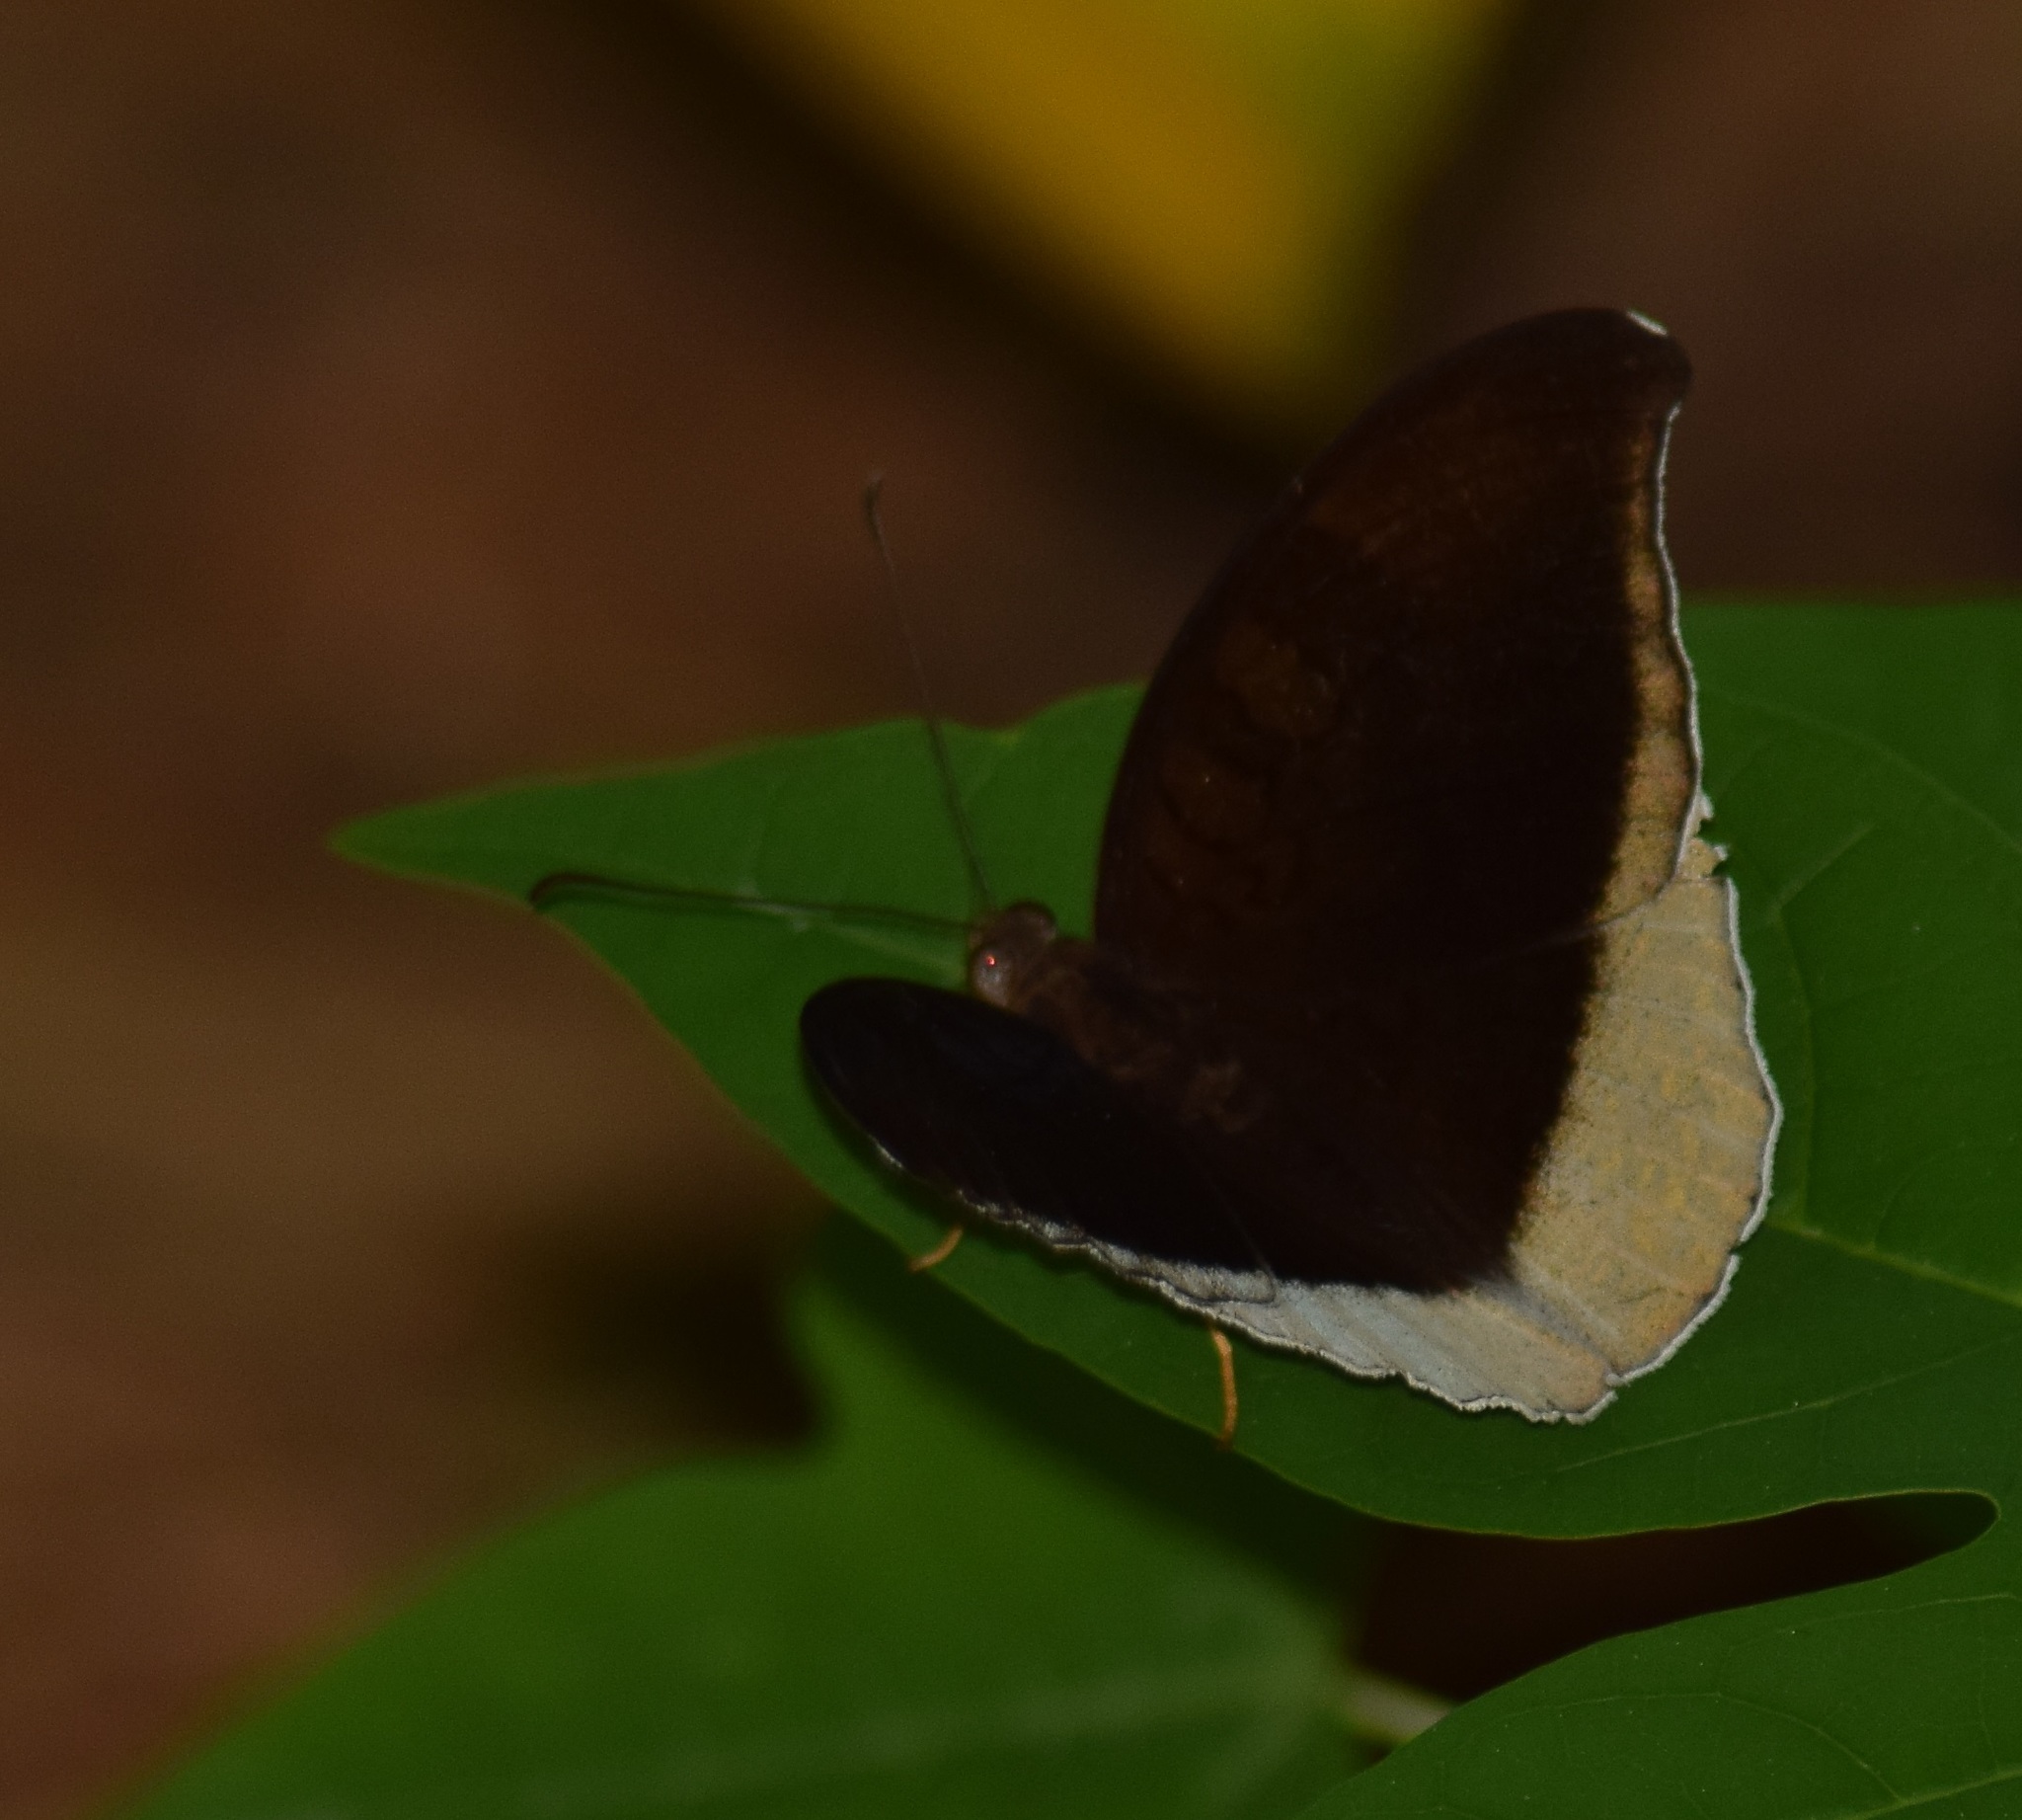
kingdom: Animalia
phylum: Arthropoda
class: Insecta
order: Lepidoptera
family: Nymphalidae
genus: Tanaecia
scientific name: Tanaecia lepidea
